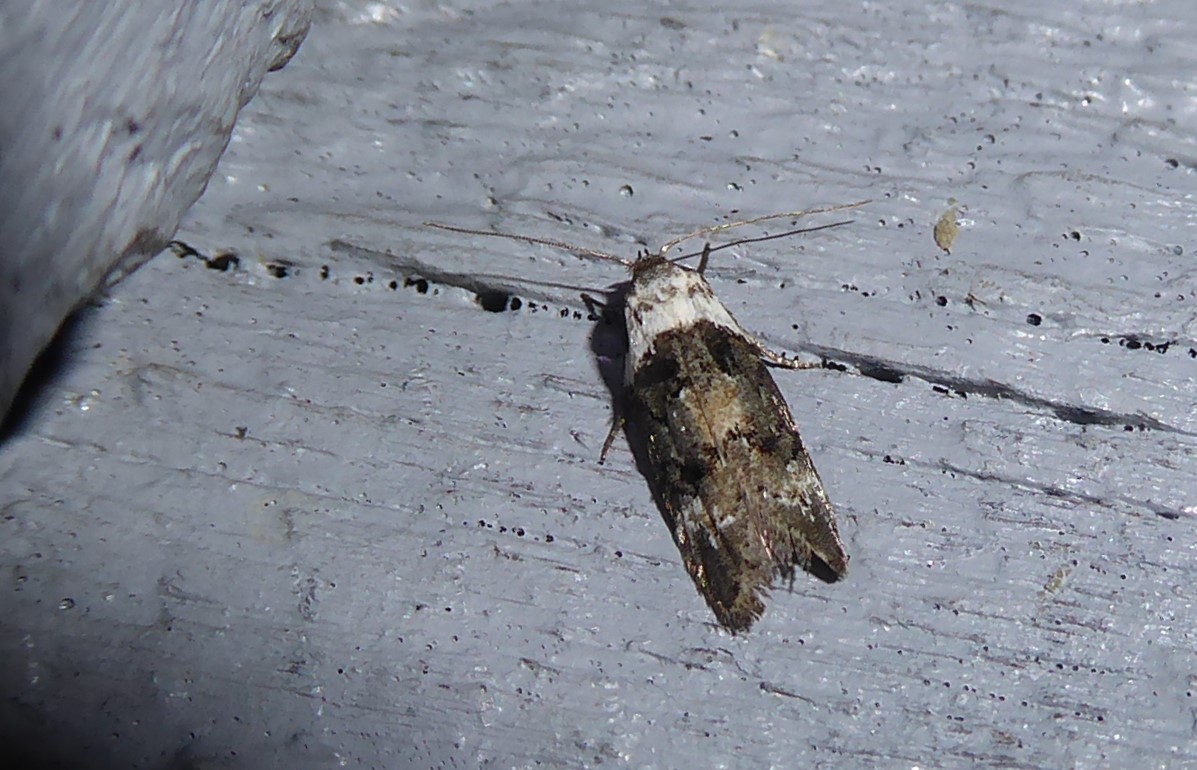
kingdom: Animalia
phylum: Arthropoda
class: Insecta
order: Lepidoptera
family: Oecophoridae
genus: Trachypepla
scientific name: Trachypepla conspicuella
